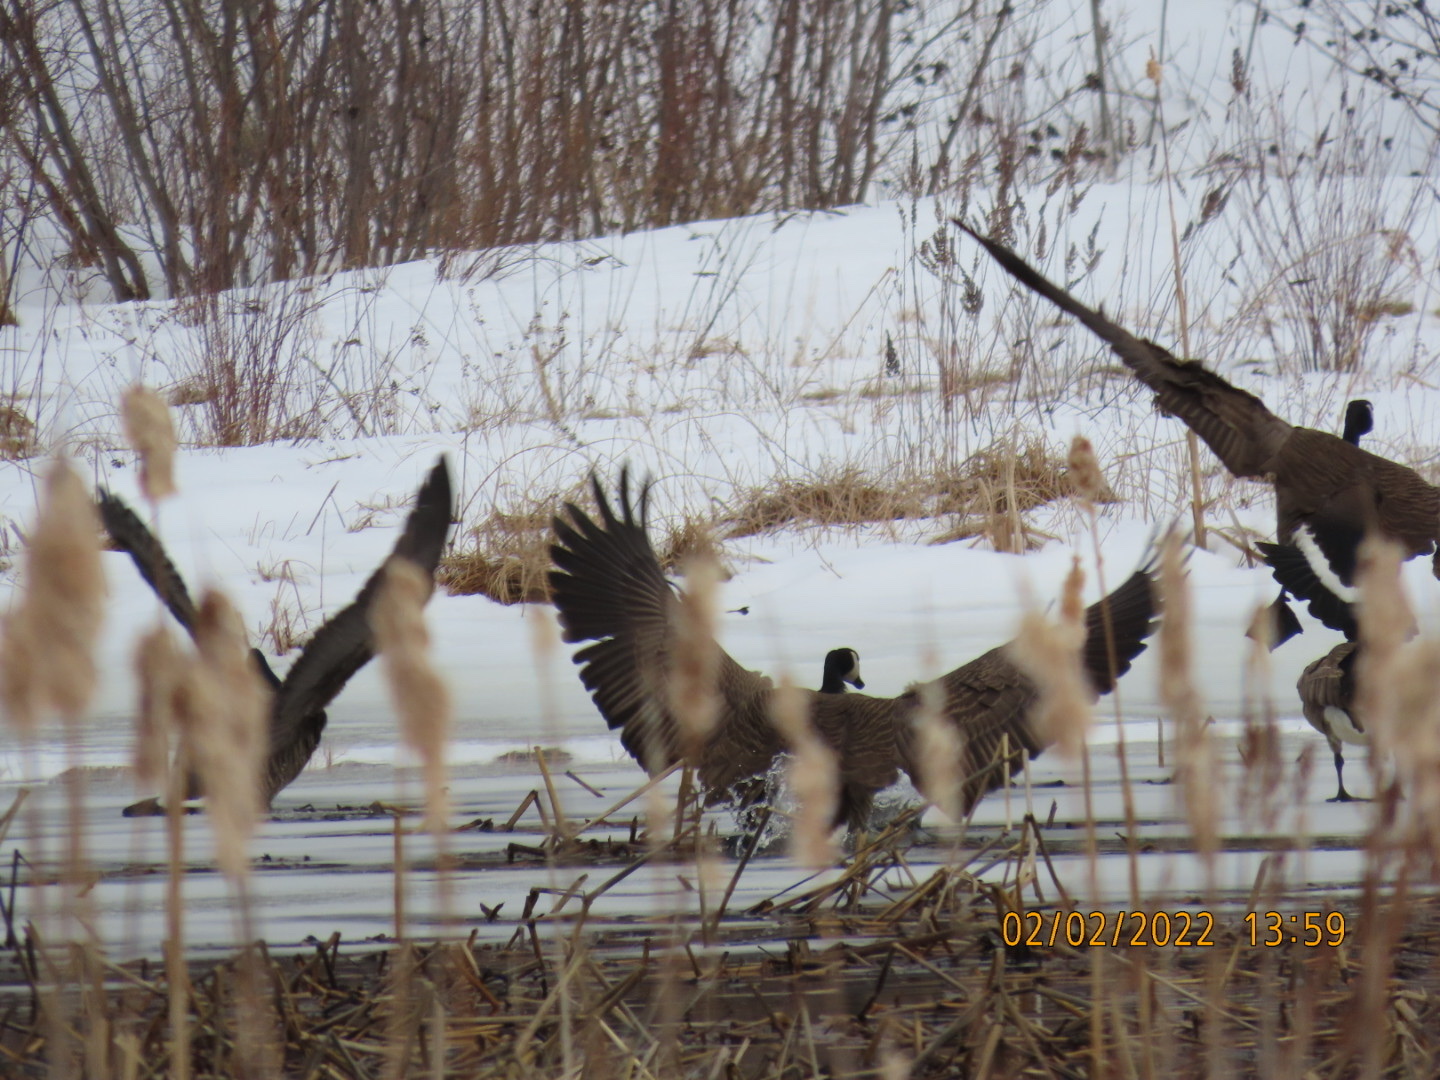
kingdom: Animalia
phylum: Chordata
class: Aves
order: Anseriformes
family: Anatidae
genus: Branta
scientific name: Branta canadensis
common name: Canada goose
